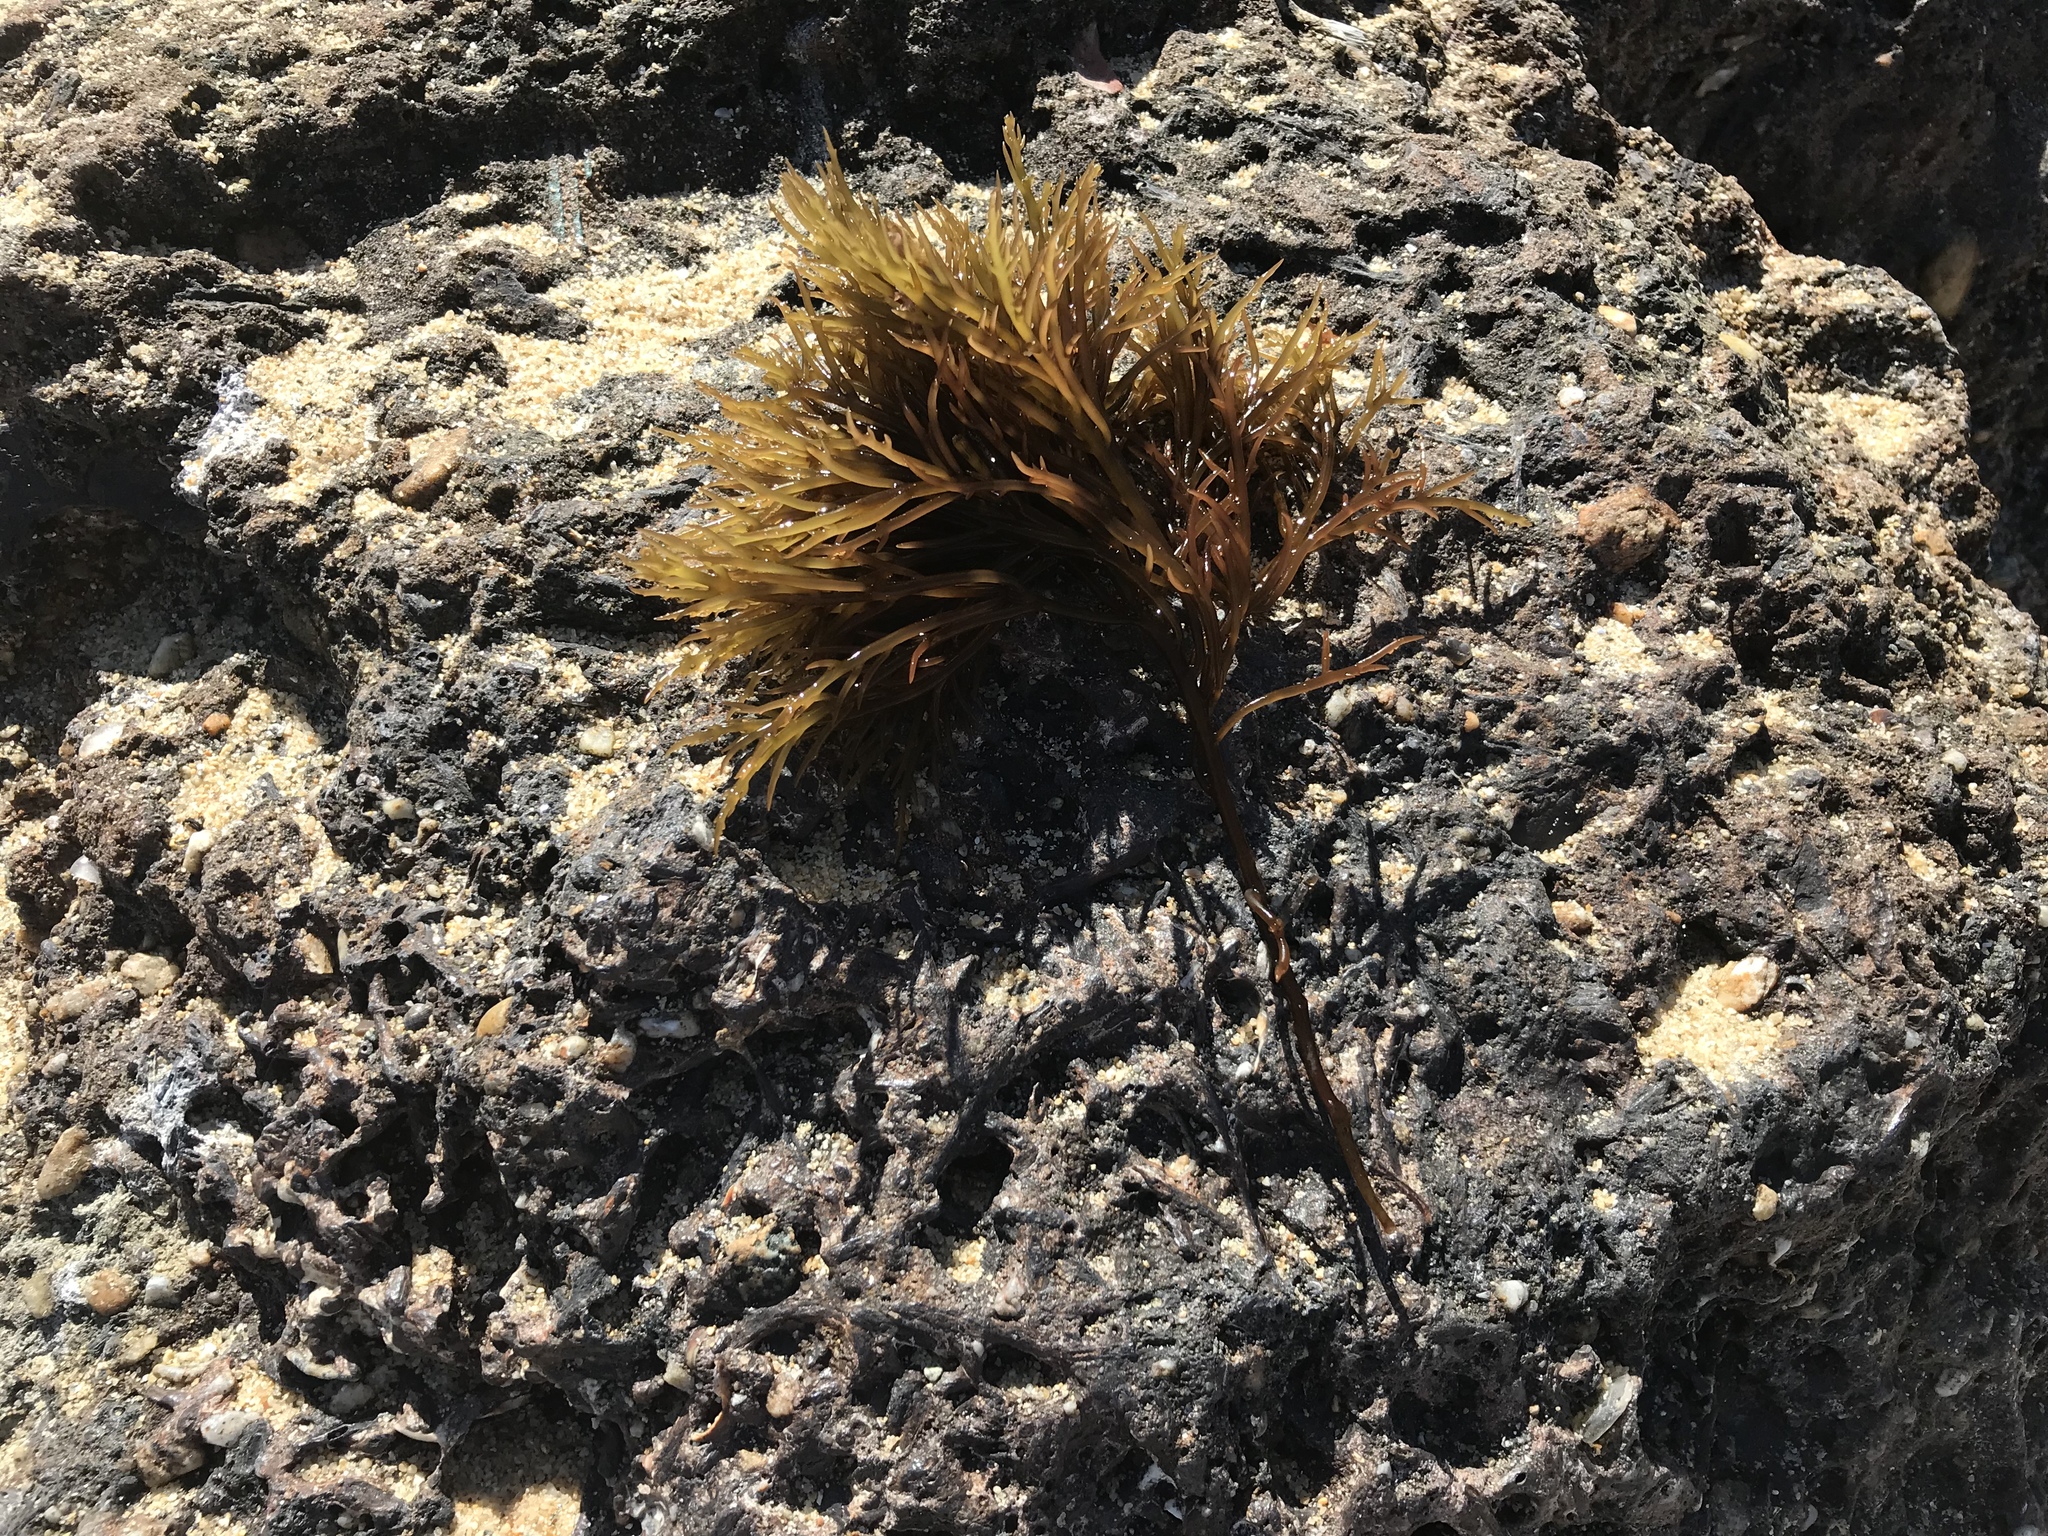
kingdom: Plantae
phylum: Rhodophyta
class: Florideophyceae
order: Gigartinales
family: Solieriaceae
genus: Sarcodiotheca
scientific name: Sarcodiotheca gaudichaudii
